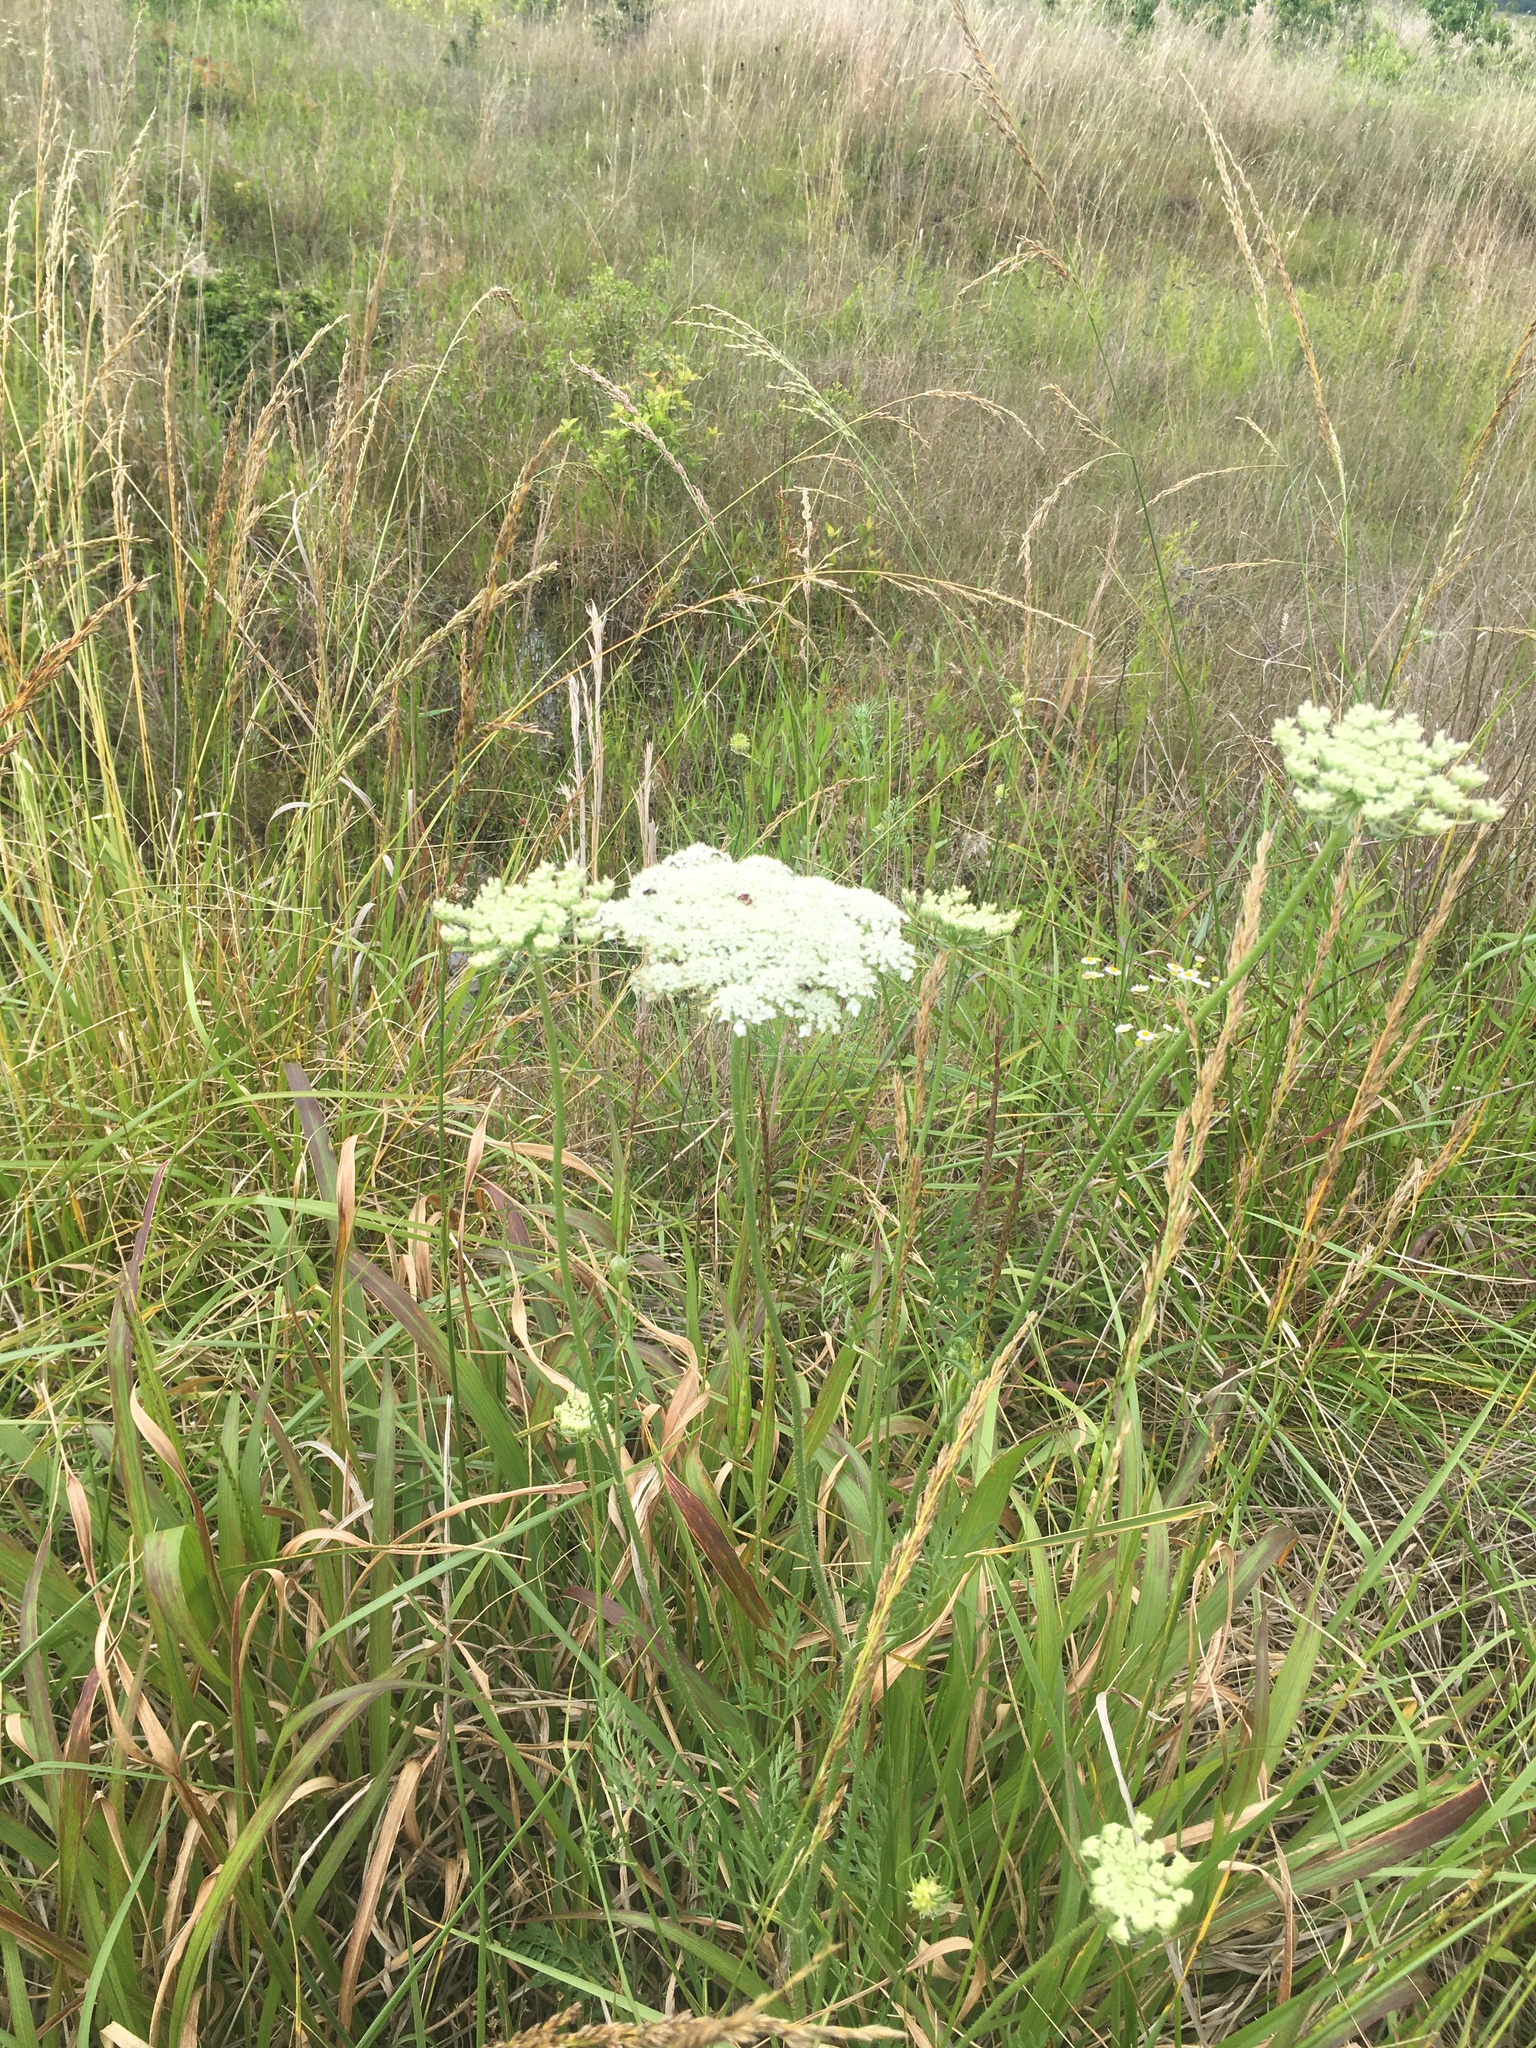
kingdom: Plantae
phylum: Tracheophyta
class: Magnoliopsida
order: Apiales
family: Apiaceae
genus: Daucus
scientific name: Daucus carota
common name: Wild carrot
